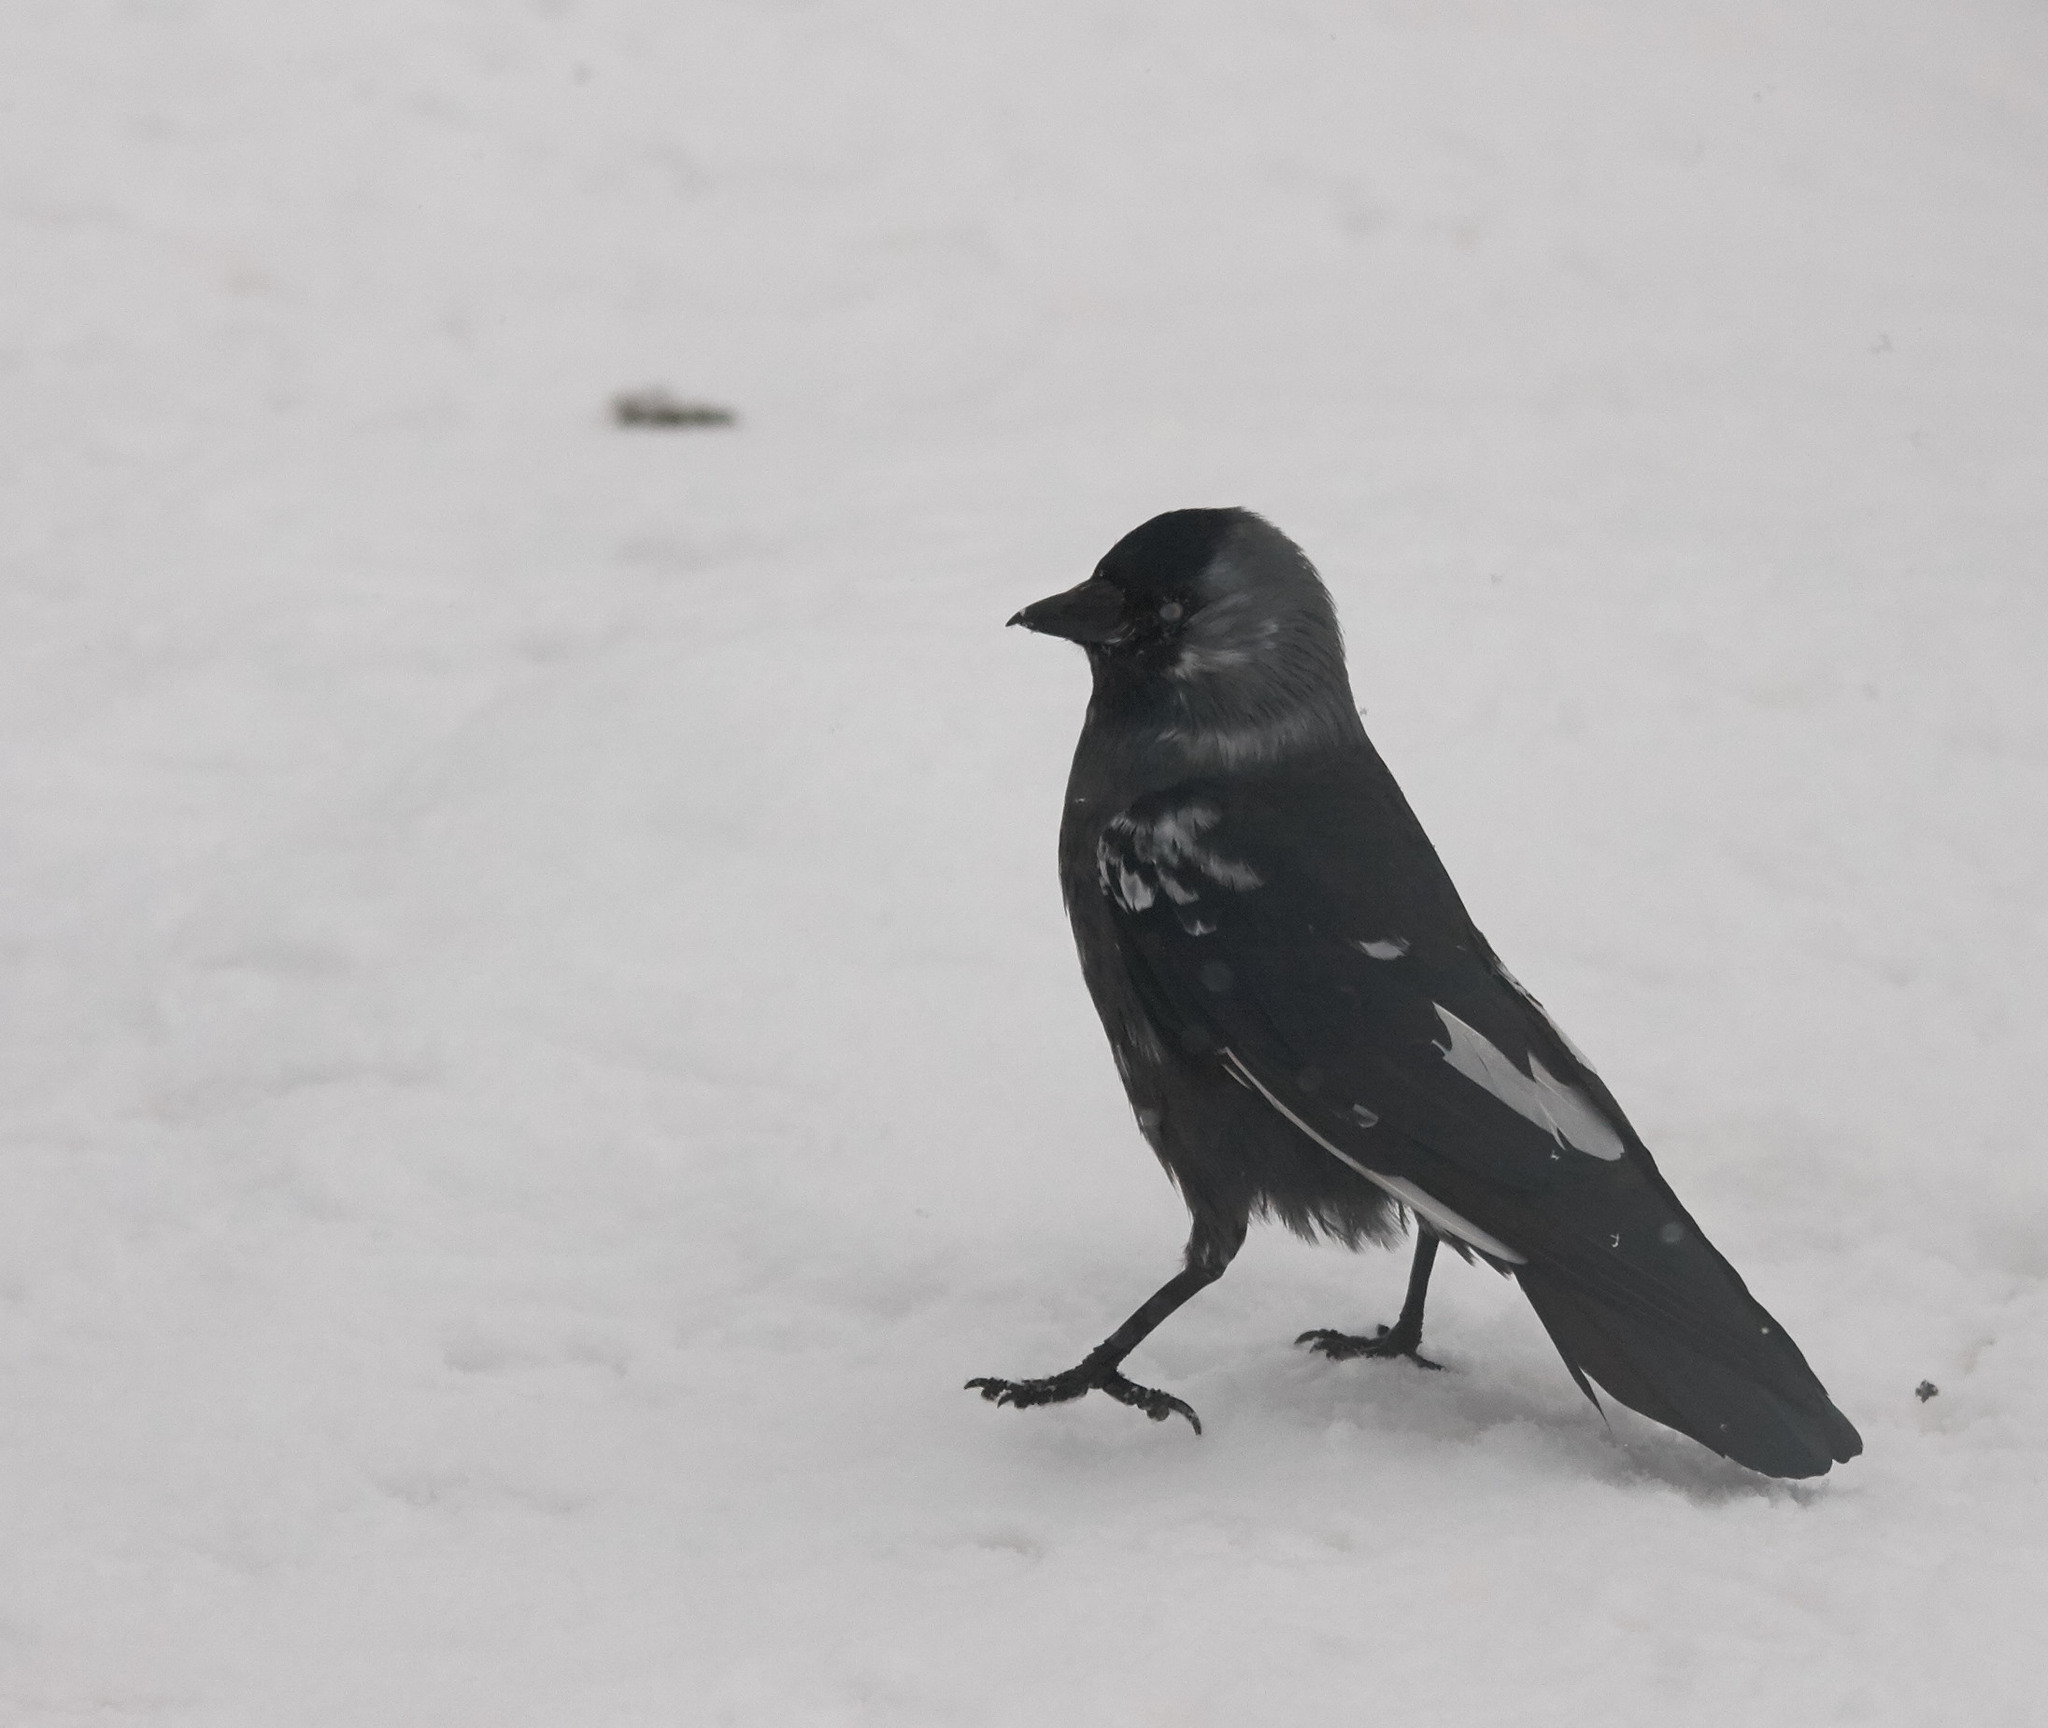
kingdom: Animalia
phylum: Chordata
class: Aves
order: Passeriformes
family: Corvidae
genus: Coloeus
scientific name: Coloeus monedula
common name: Western jackdaw
